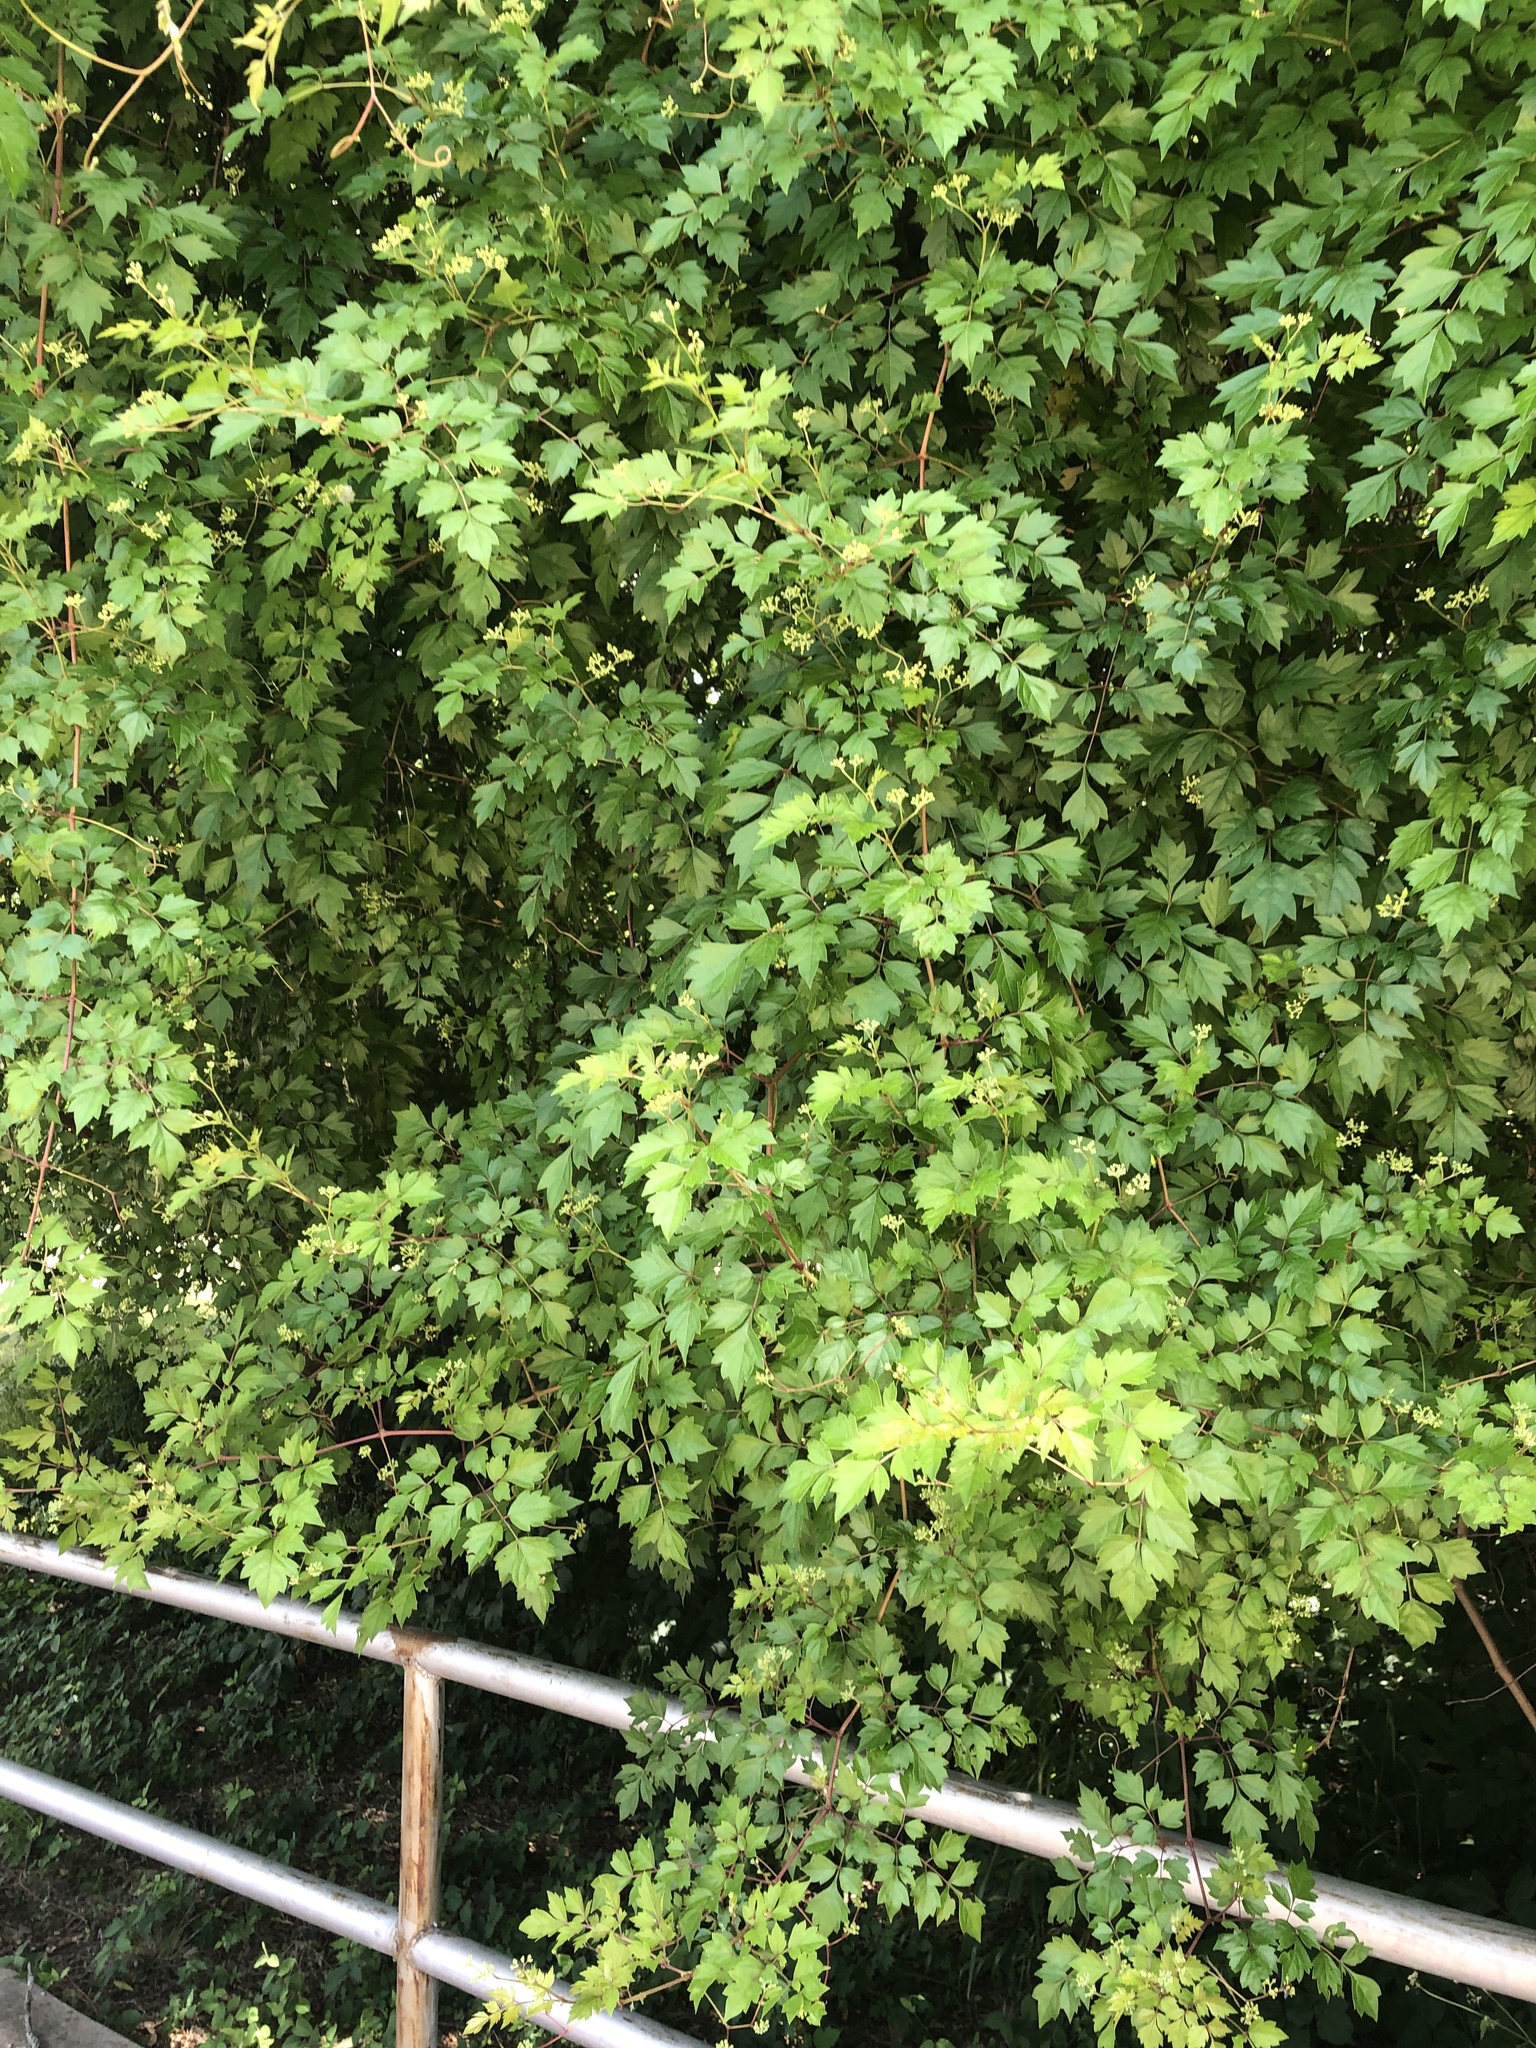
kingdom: Plantae
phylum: Tracheophyta
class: Magnoliopsida
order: Vitales
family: Vitaceae
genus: Nekemias
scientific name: Nekemias arborea
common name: Peppervine
